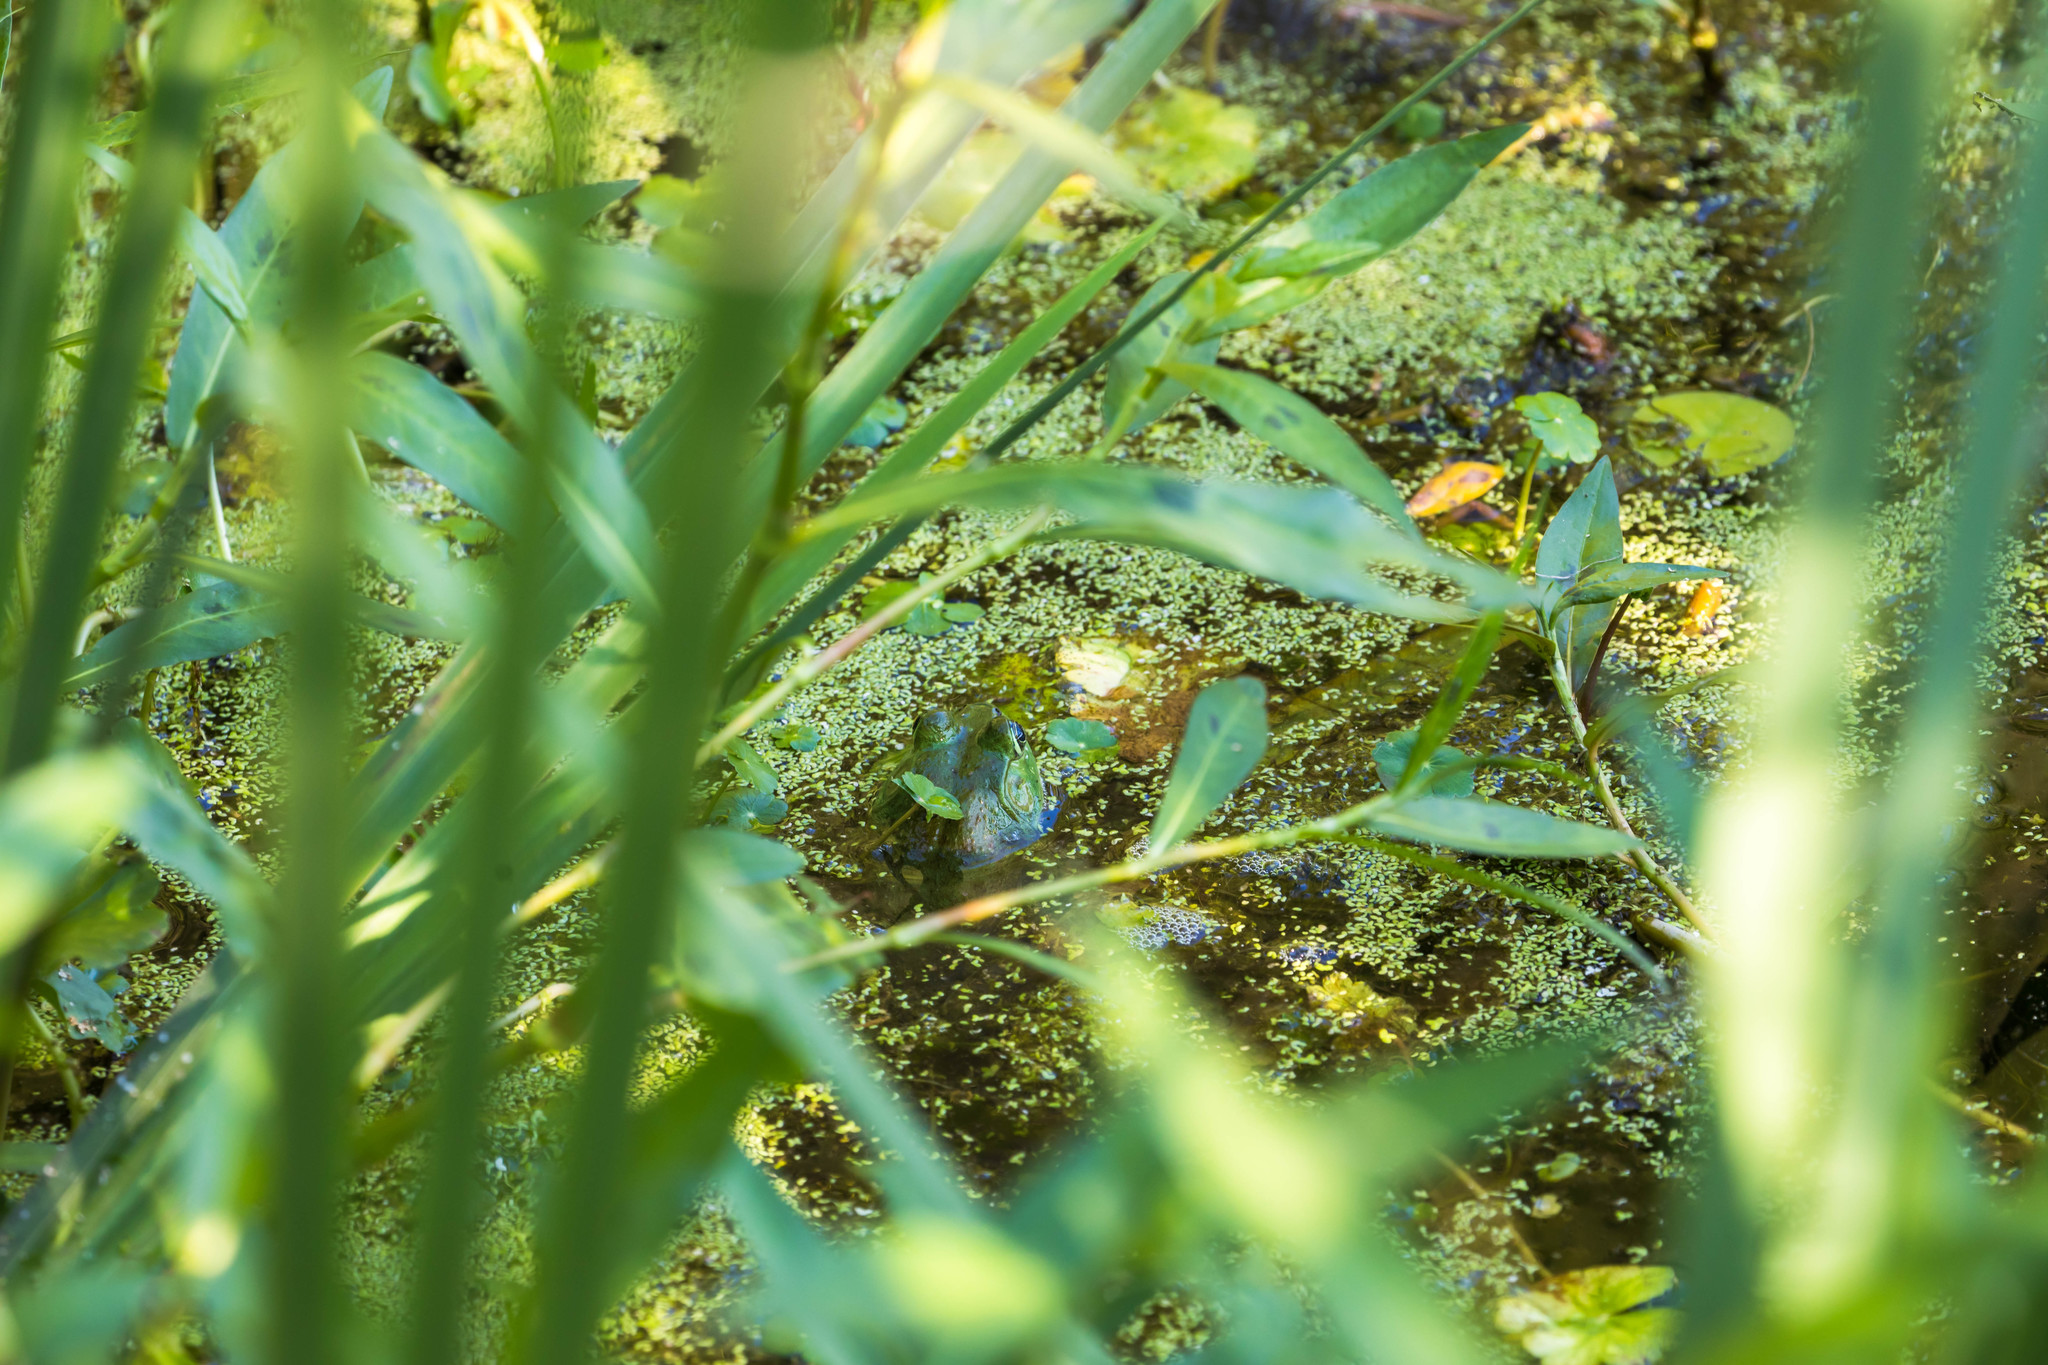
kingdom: Animalia
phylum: Chordata
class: Amphibia
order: Anura
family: Ranidae
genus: Lithobates
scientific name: Lithobates catesbeianus
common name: American bullfrog
